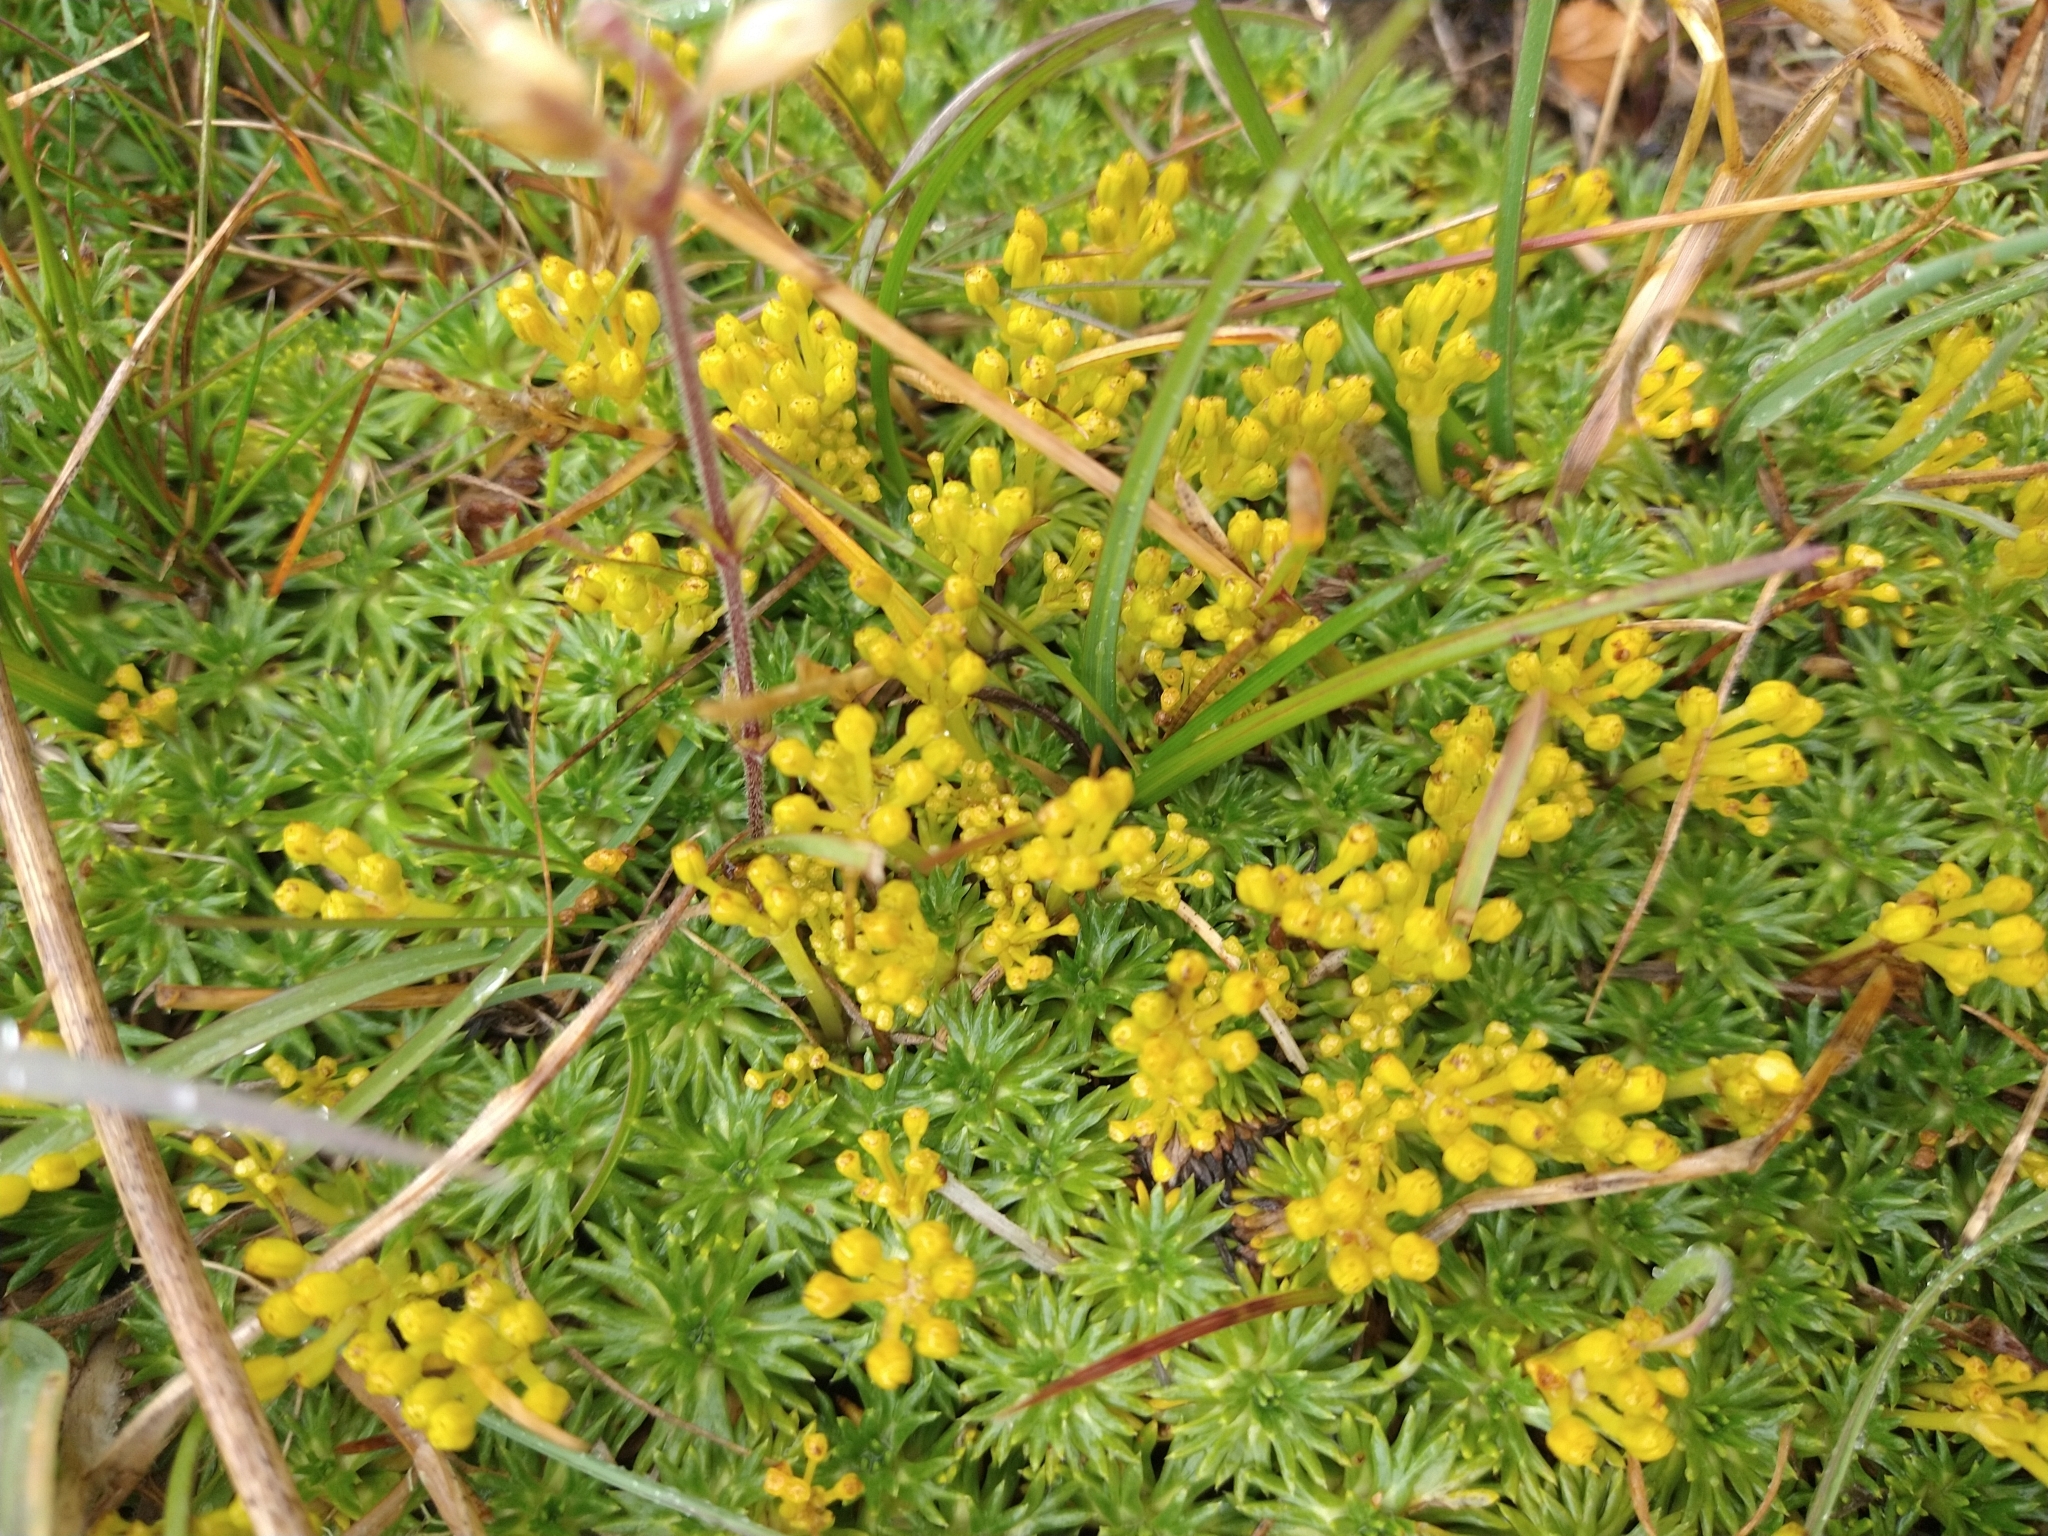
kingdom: Plantae
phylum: Tracheophyta
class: Magnoliopsida
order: Apiales
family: Apiaceae
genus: Azorella
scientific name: Azorella trifurcata
